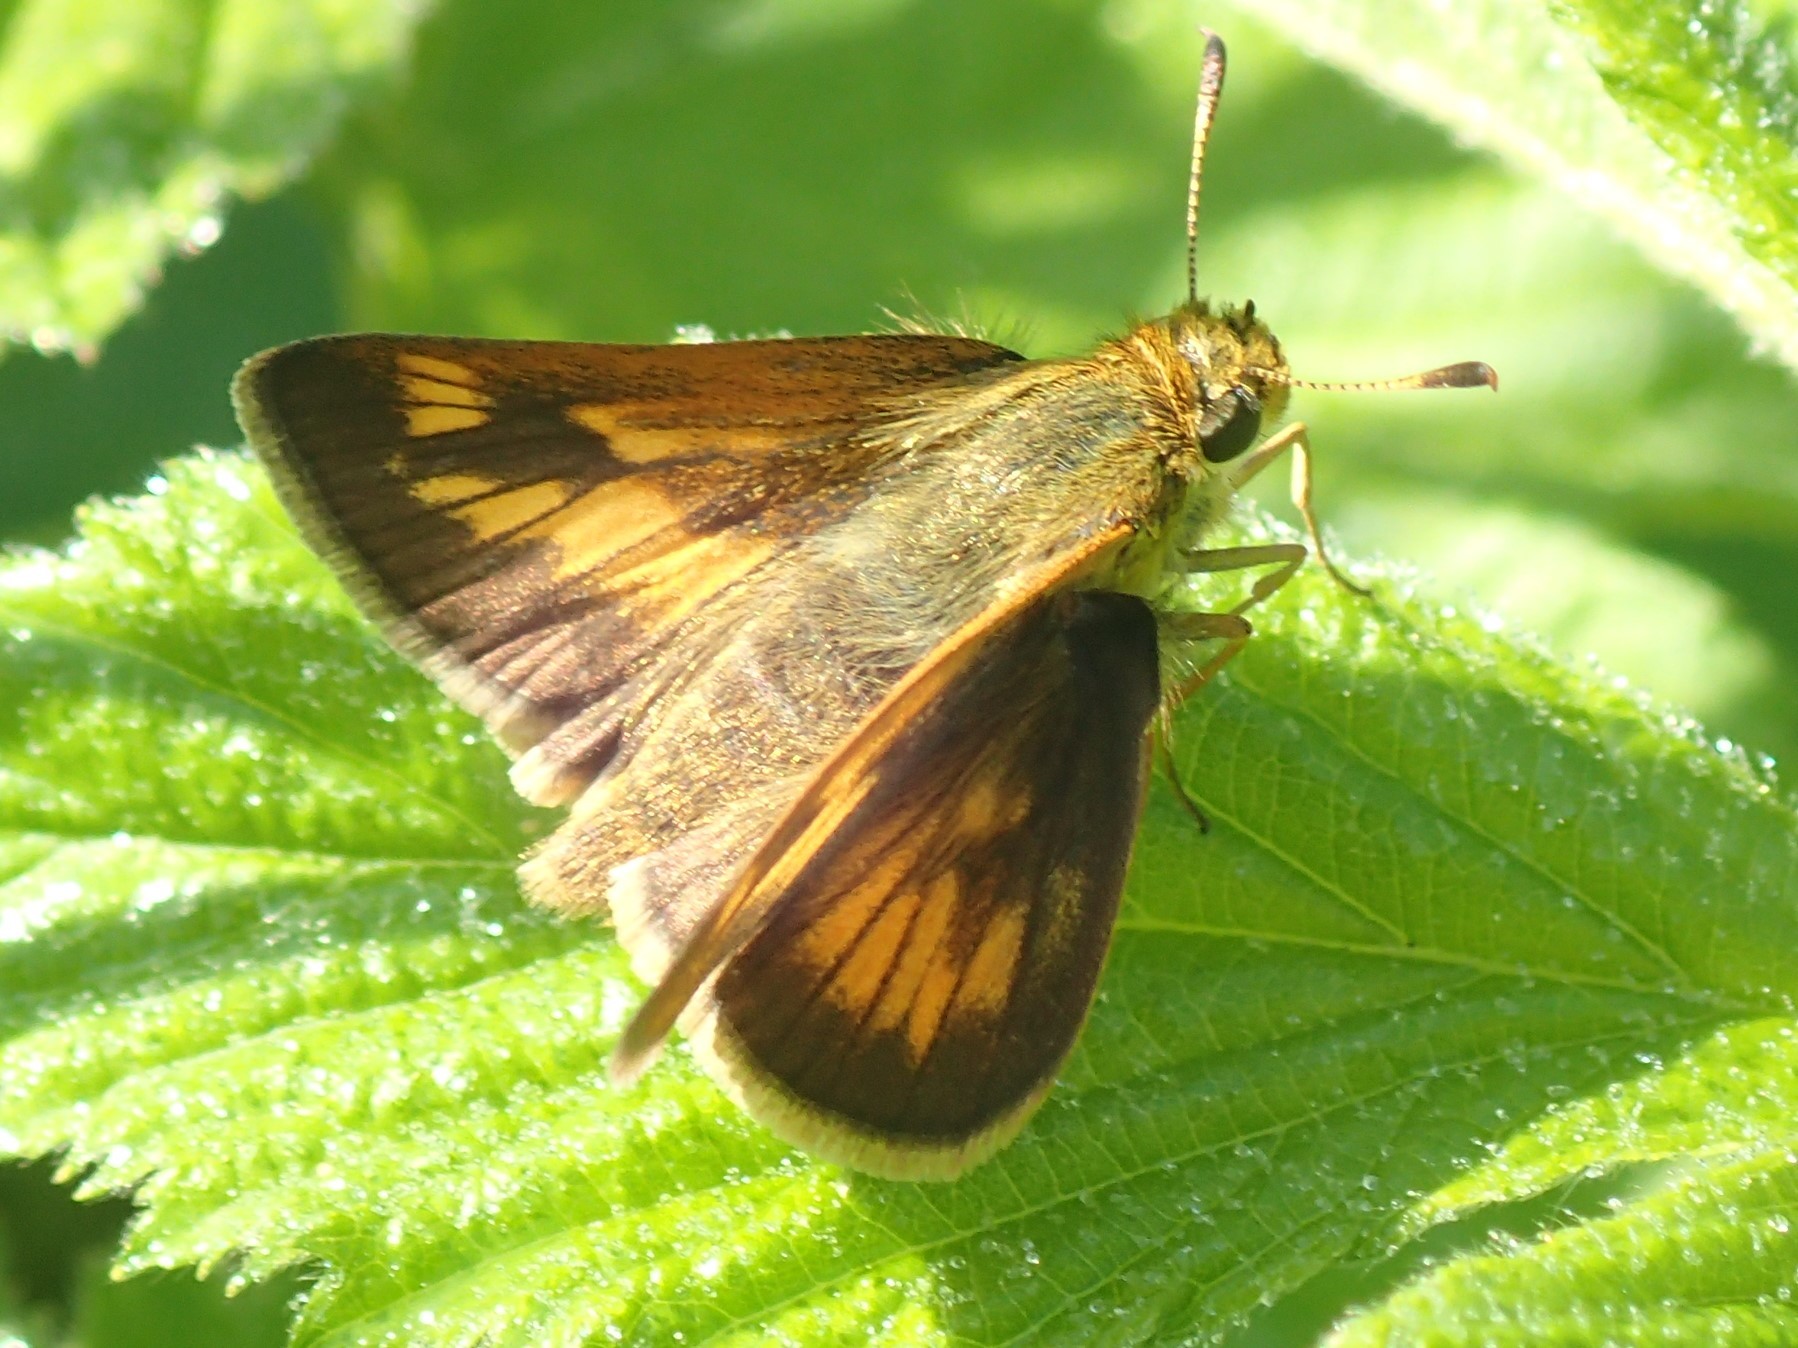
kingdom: Animalia
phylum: Arthropoda
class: Insecta
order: Lepidoptera
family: Hesperiidae
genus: Polites
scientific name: Polites mystic
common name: Long dash
